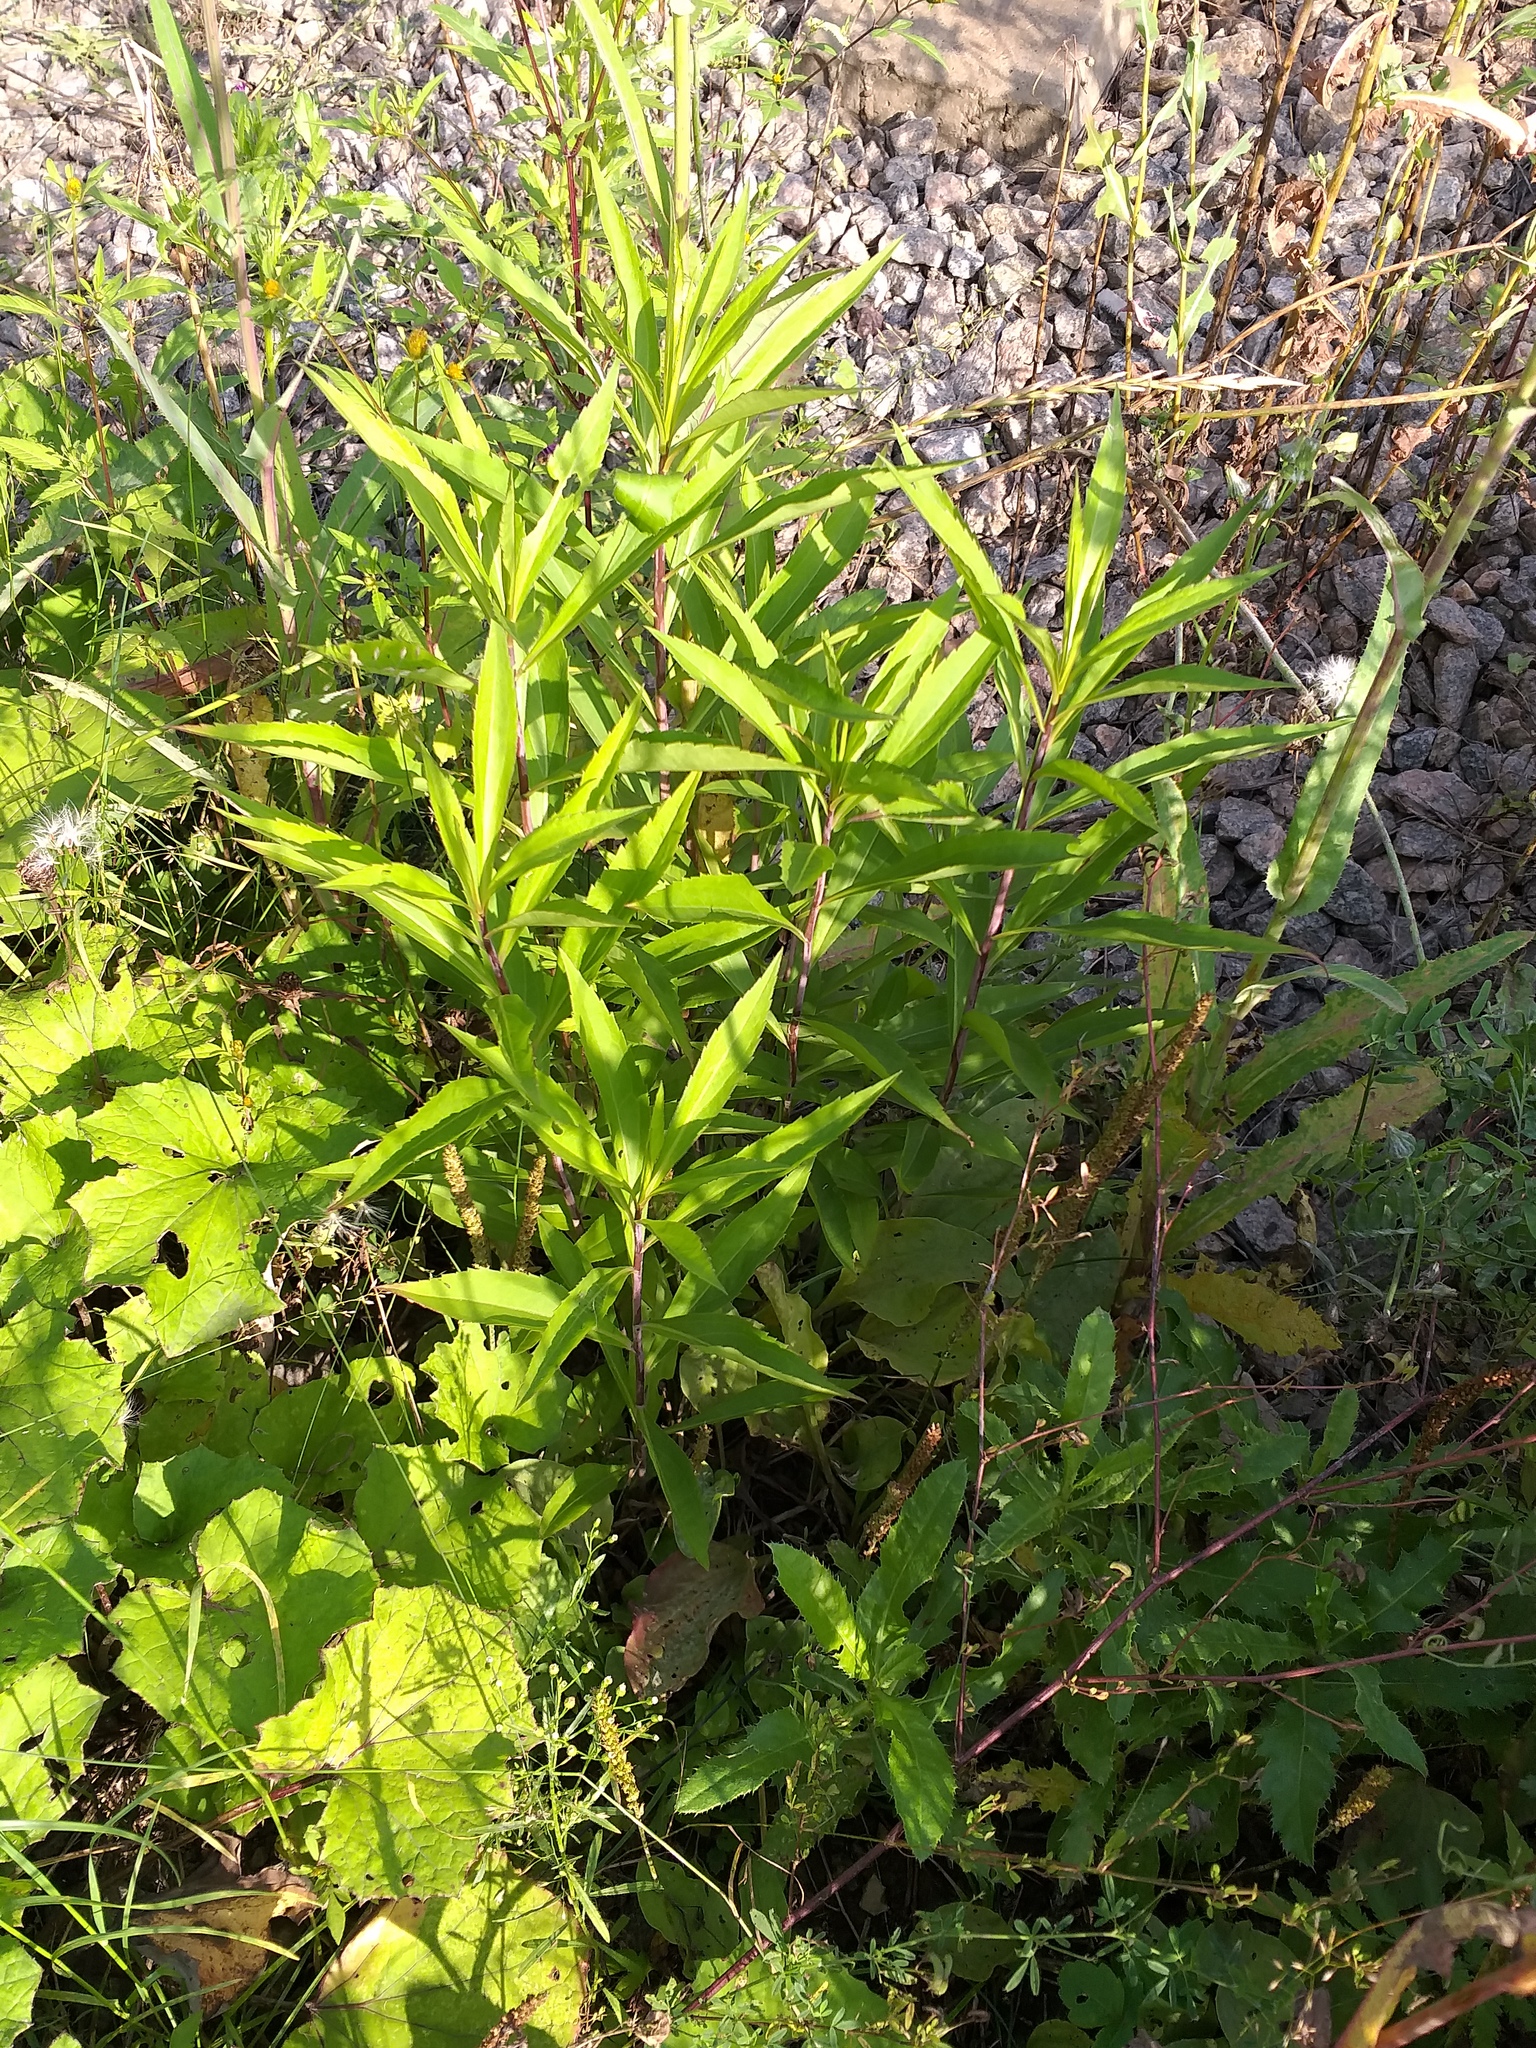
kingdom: Plantae
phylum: Tracheophyta
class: Magnoliopsida
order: Asterales
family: Asteraceae
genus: Solidago
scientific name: Solidago gigantea
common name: Giant goldenrod
